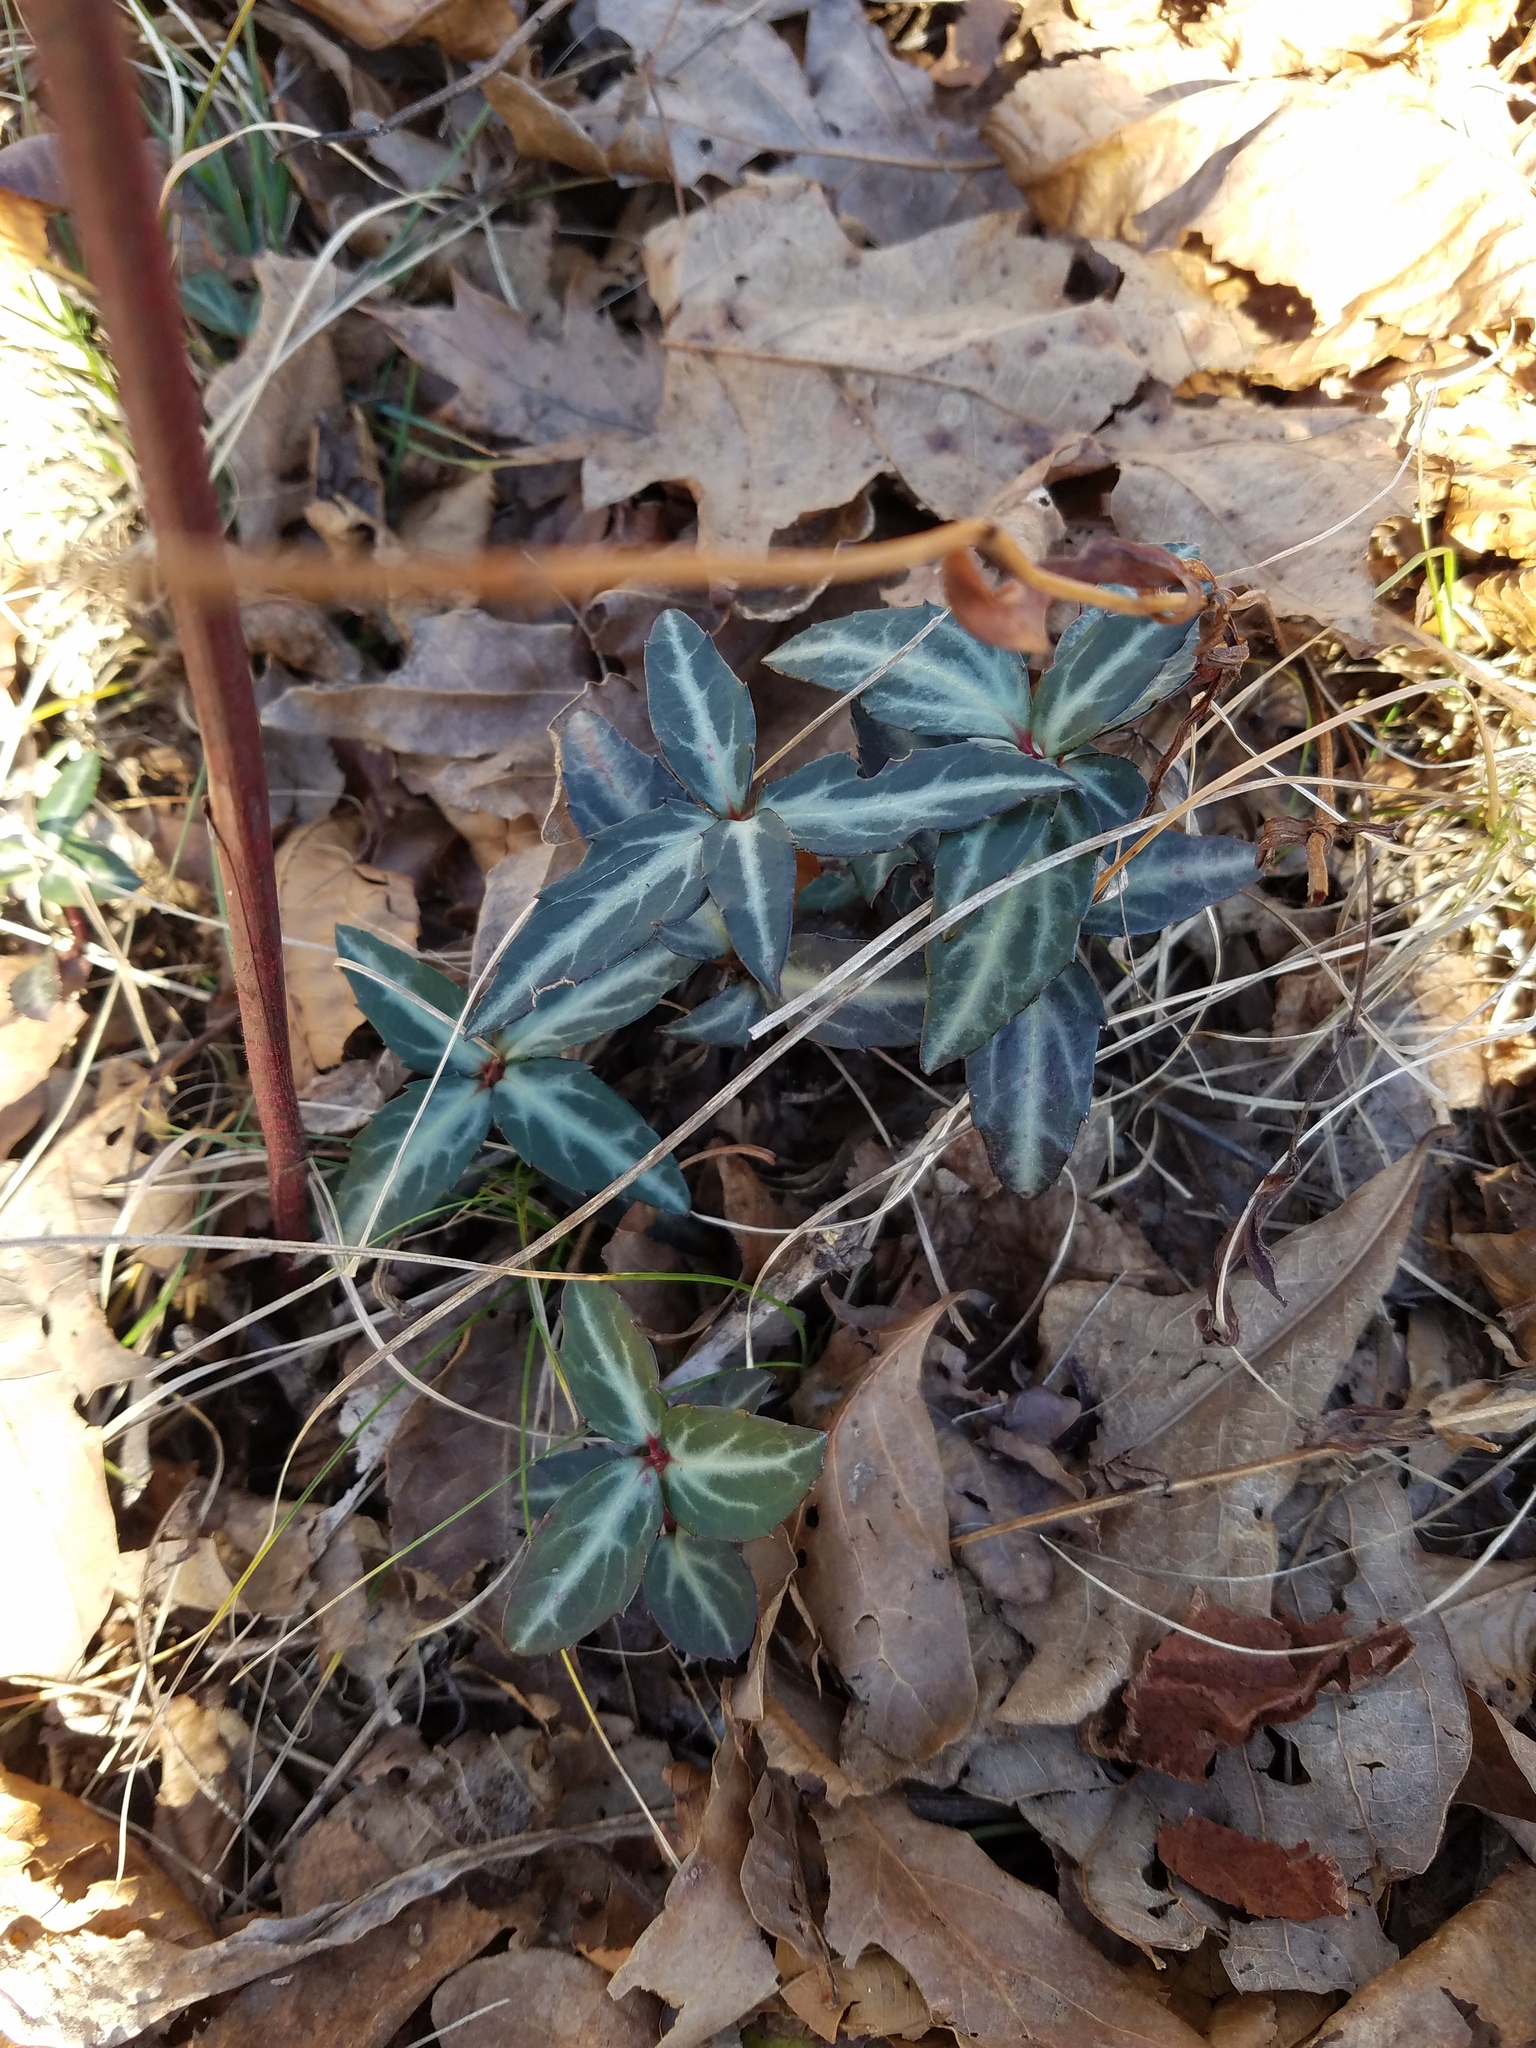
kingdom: Plantae
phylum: Tracheophyta
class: Magnoliopsida
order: Ericales
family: Ericaceae
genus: Chimaphila
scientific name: Chimaphila maculata
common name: Spotted pipsissewa
